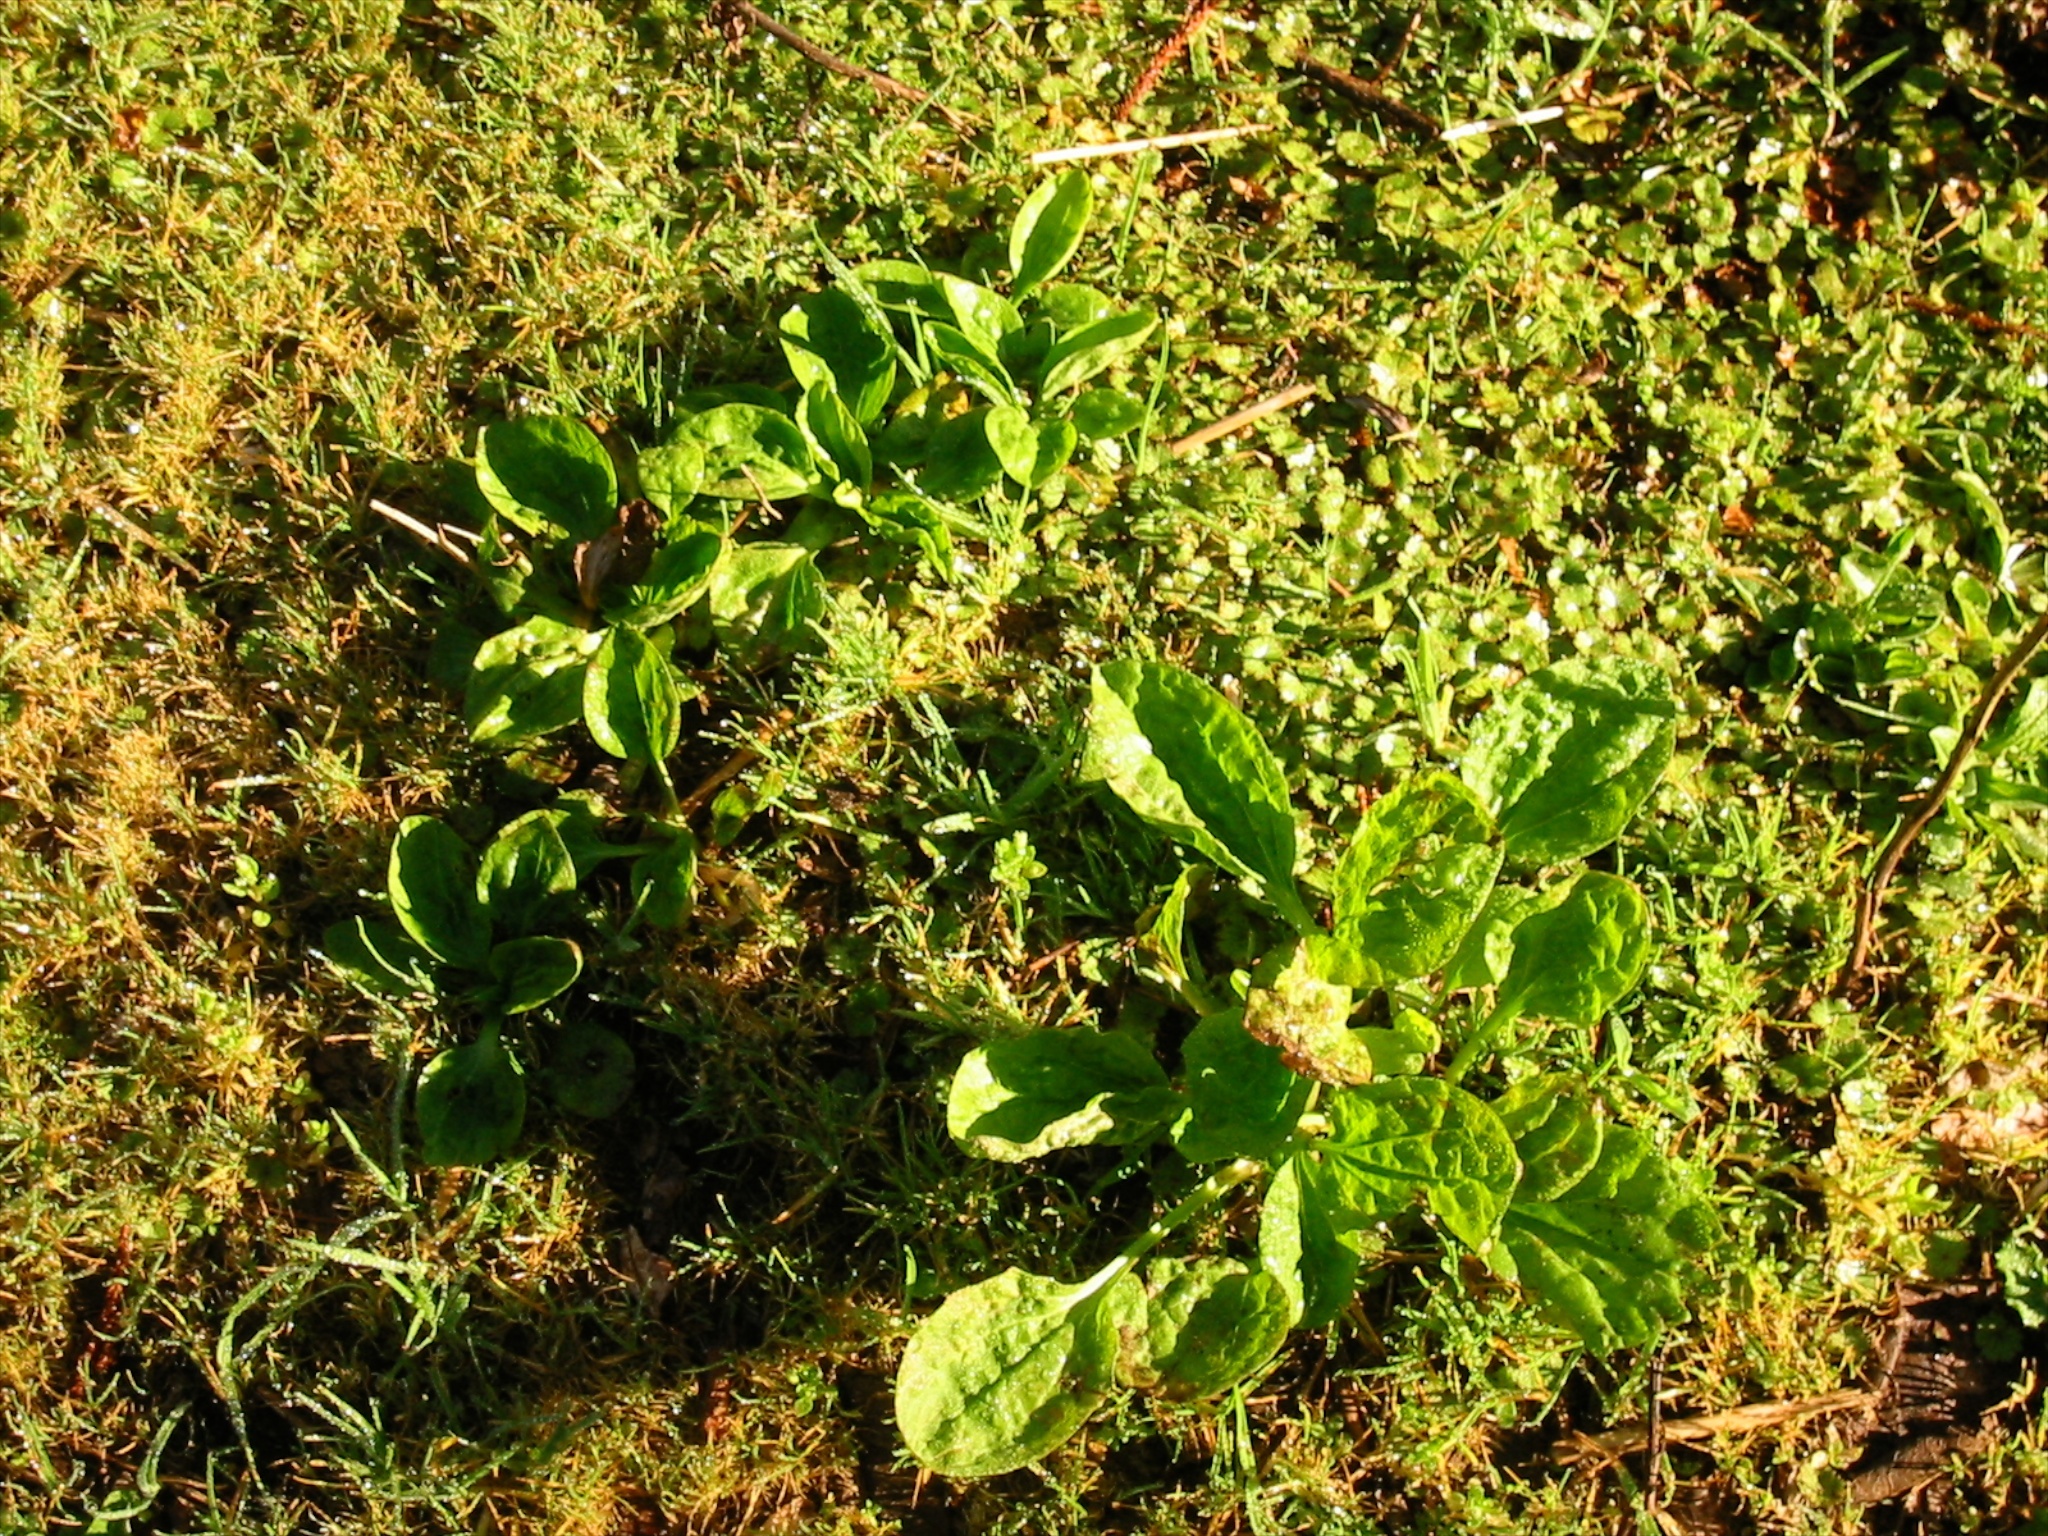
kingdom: Plantae
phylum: Tracheophyta
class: Magnoliopsida
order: Lamiales
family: Plantaginaceae
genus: Plantago
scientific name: Plantago major
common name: Common plantain
